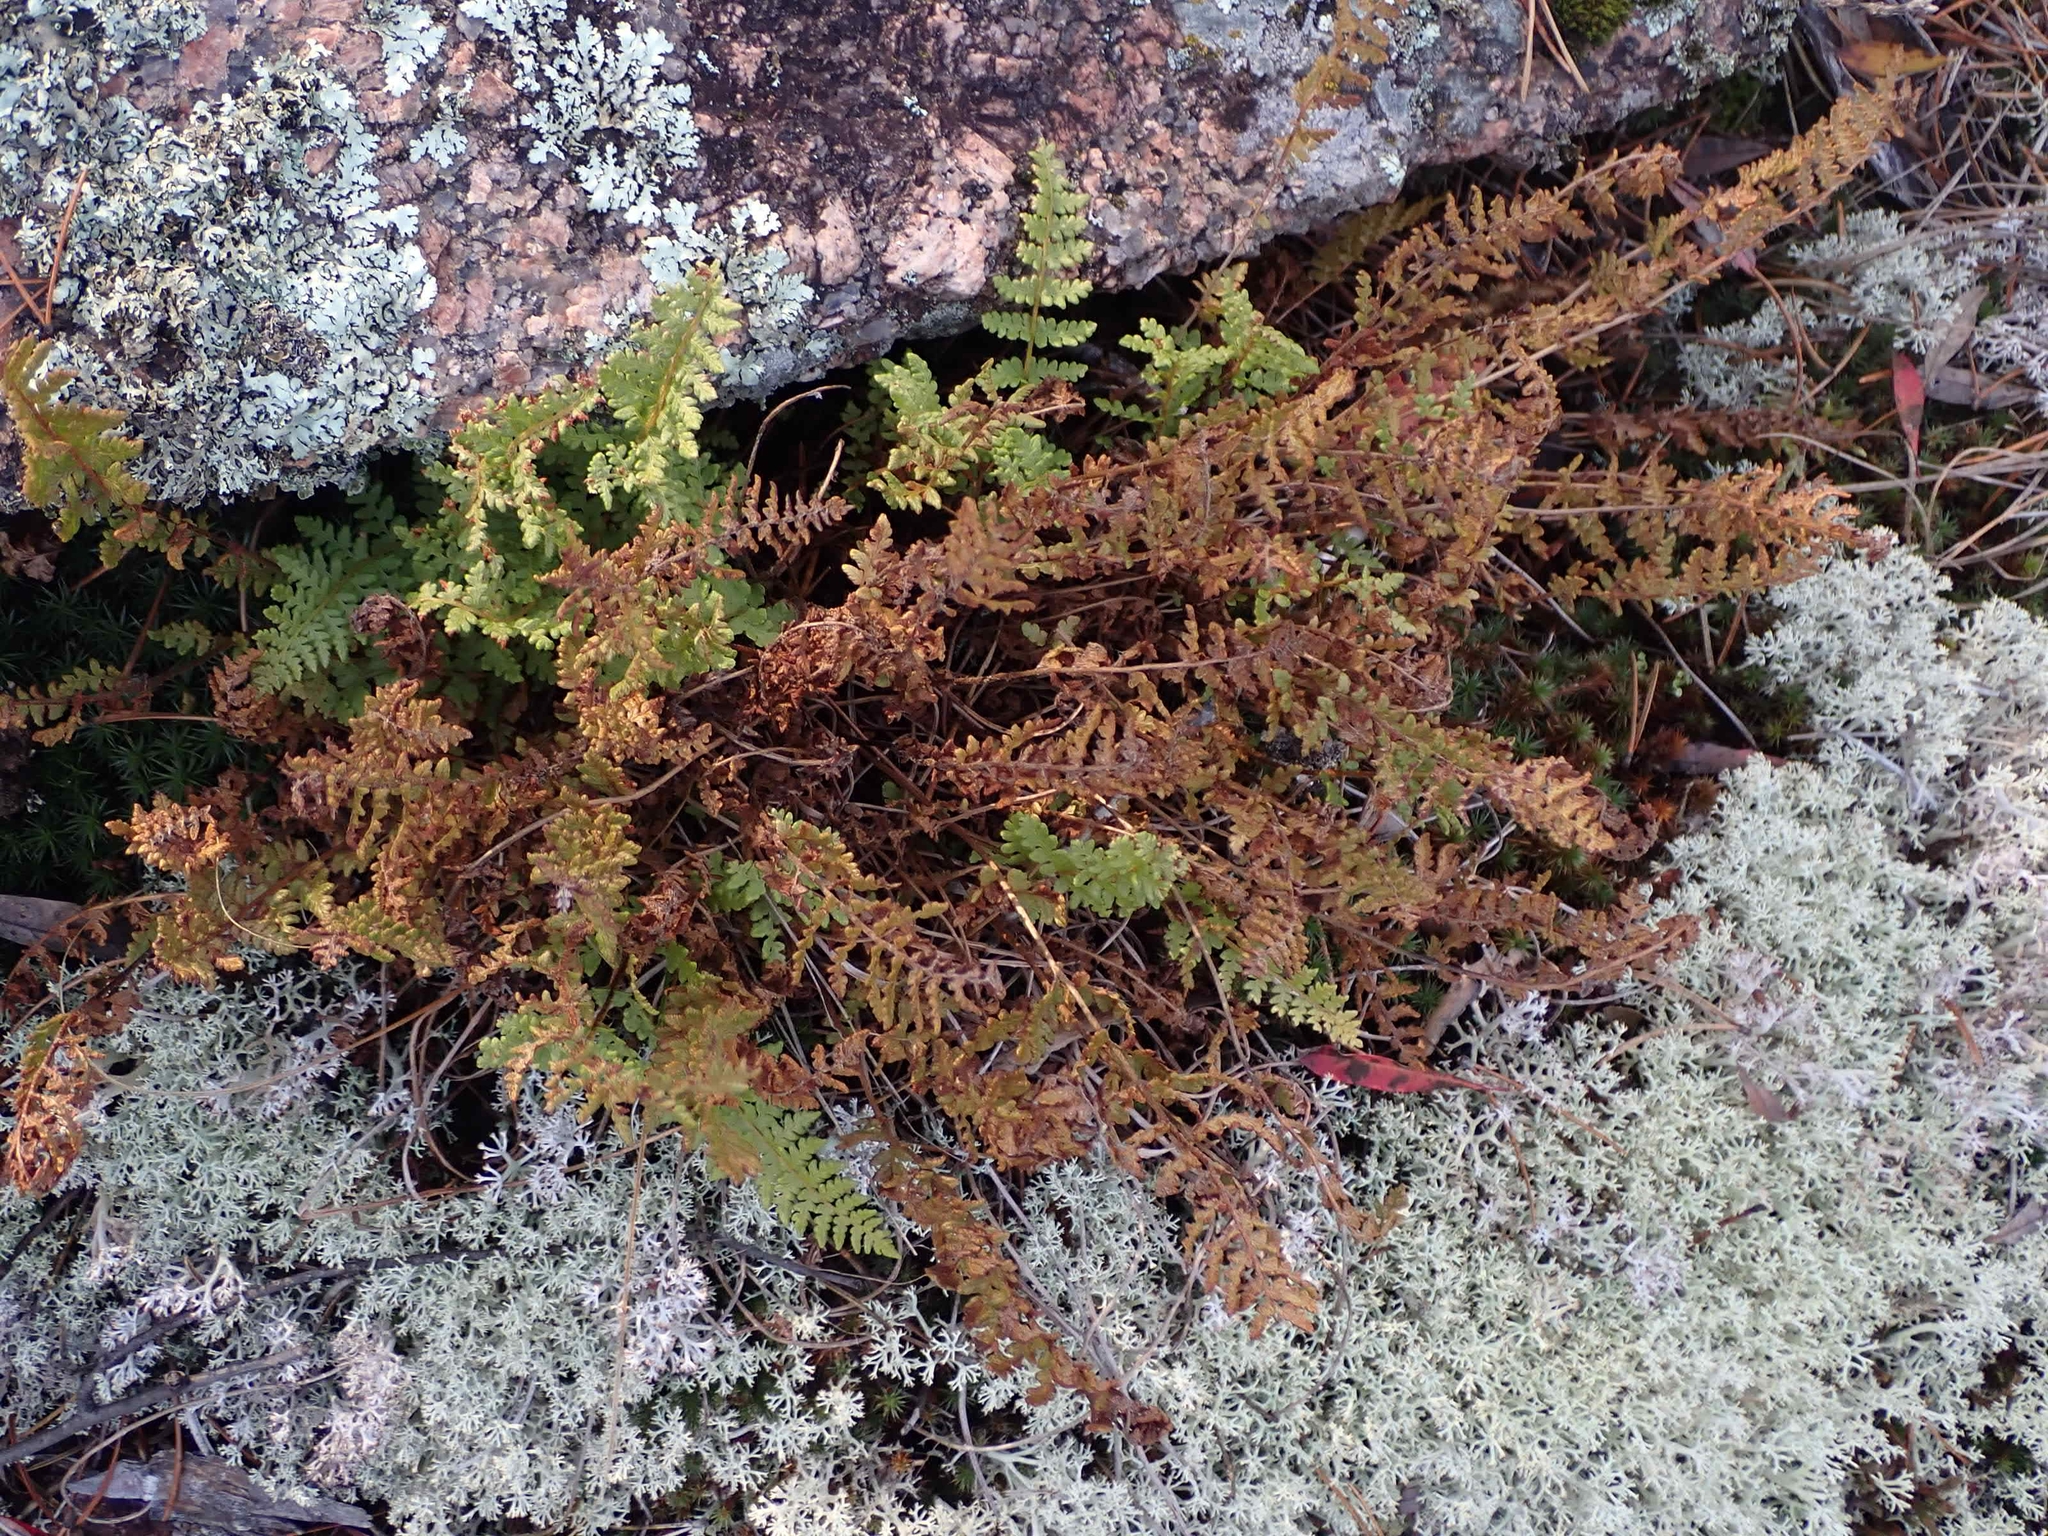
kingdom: Plantae
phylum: Tracheophyta
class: Polypodiopsida
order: Polypodiales
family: Woodsiaceae
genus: Woodsia
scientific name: Woodsia ilvensis
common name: Fragrant woodsia
